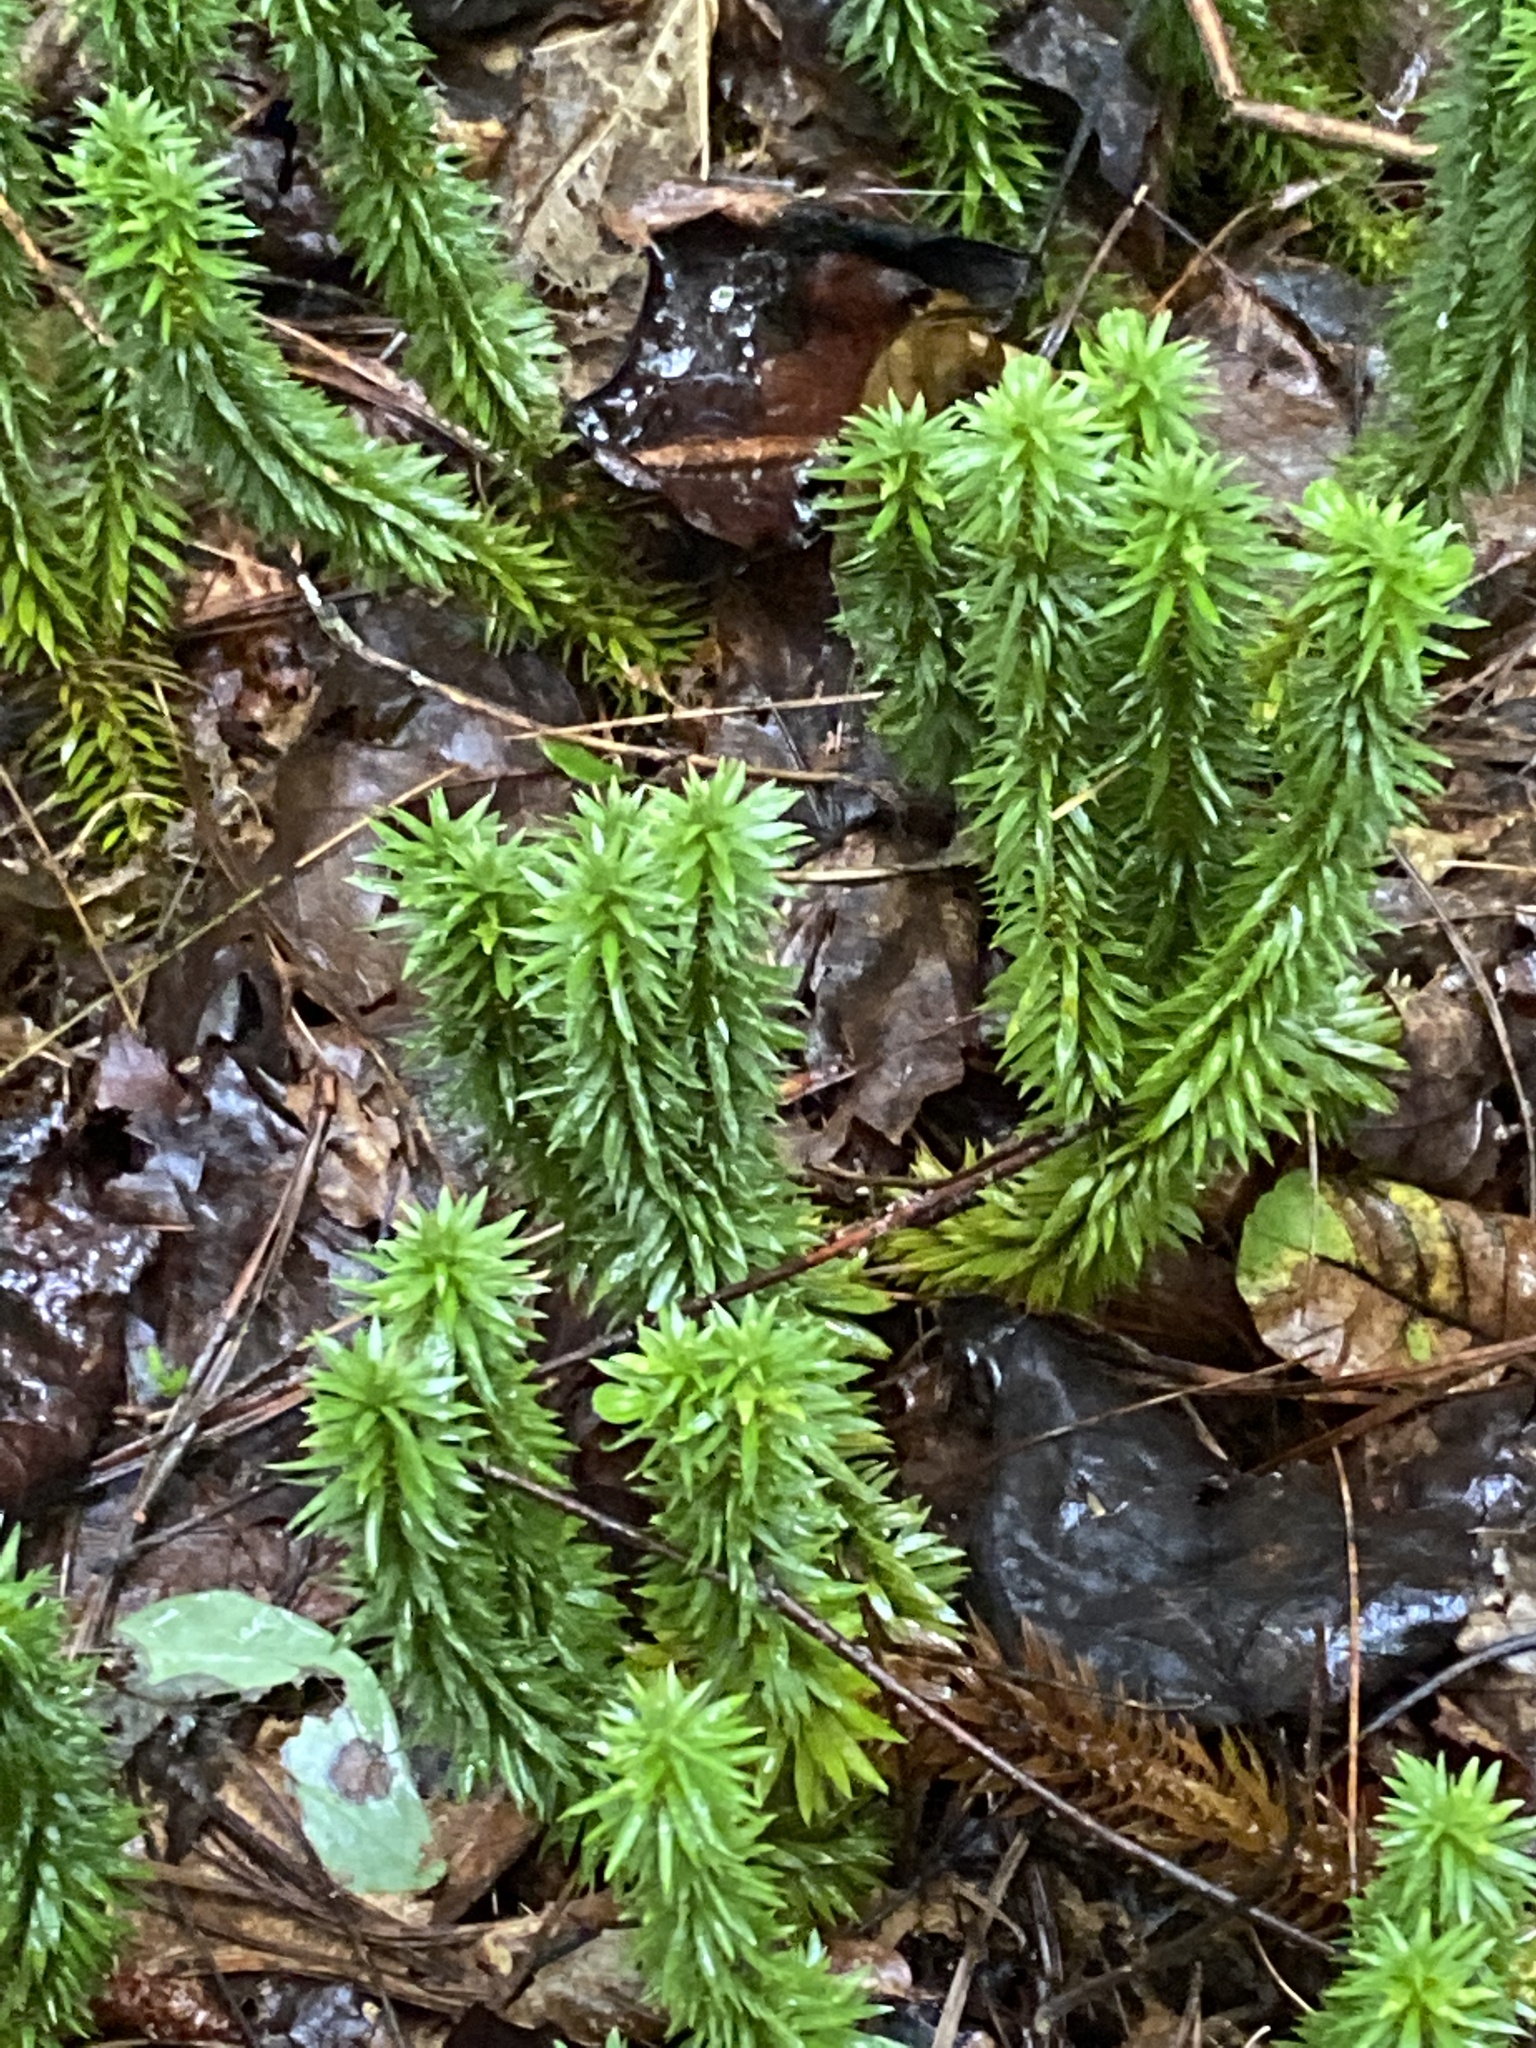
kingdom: Plantae
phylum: Tracheophyta
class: Lycopodiopsida
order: Lycopodiales
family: Lycopodiaceae
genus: Huperzia
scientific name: Huperzia lucidula
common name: Shining clubmoss
